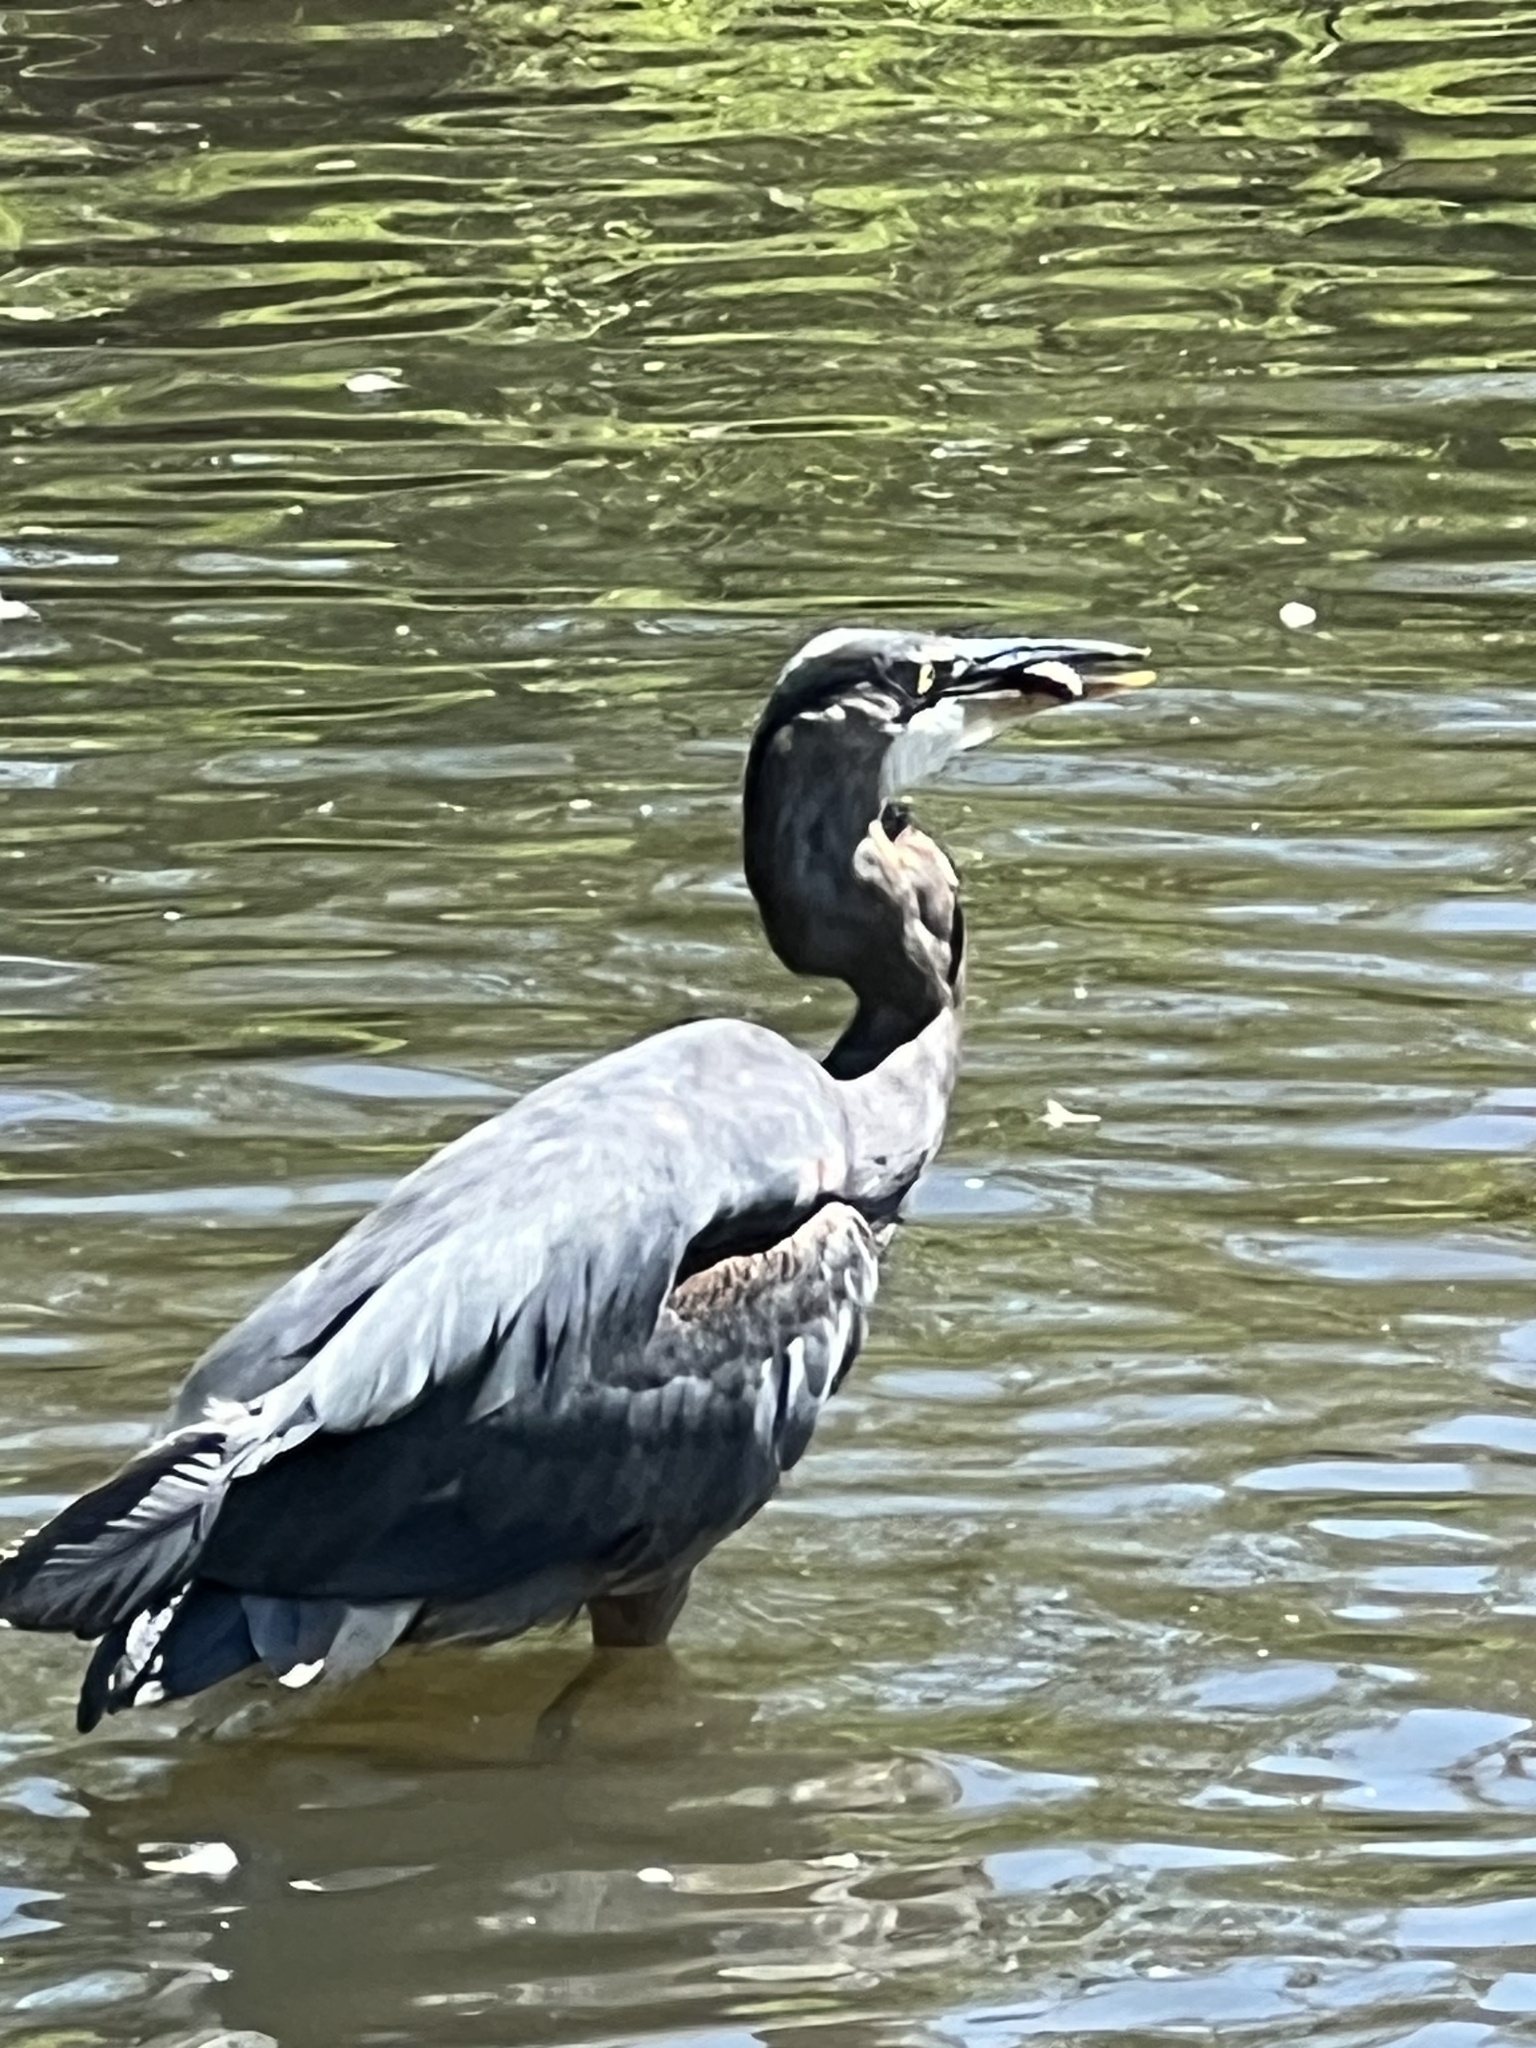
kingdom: Animalia
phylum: Chordata
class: Aves
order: Pelecaniformes
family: Ardeidae
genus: Ardea
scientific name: Ardea herodias
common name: Great blue heron
